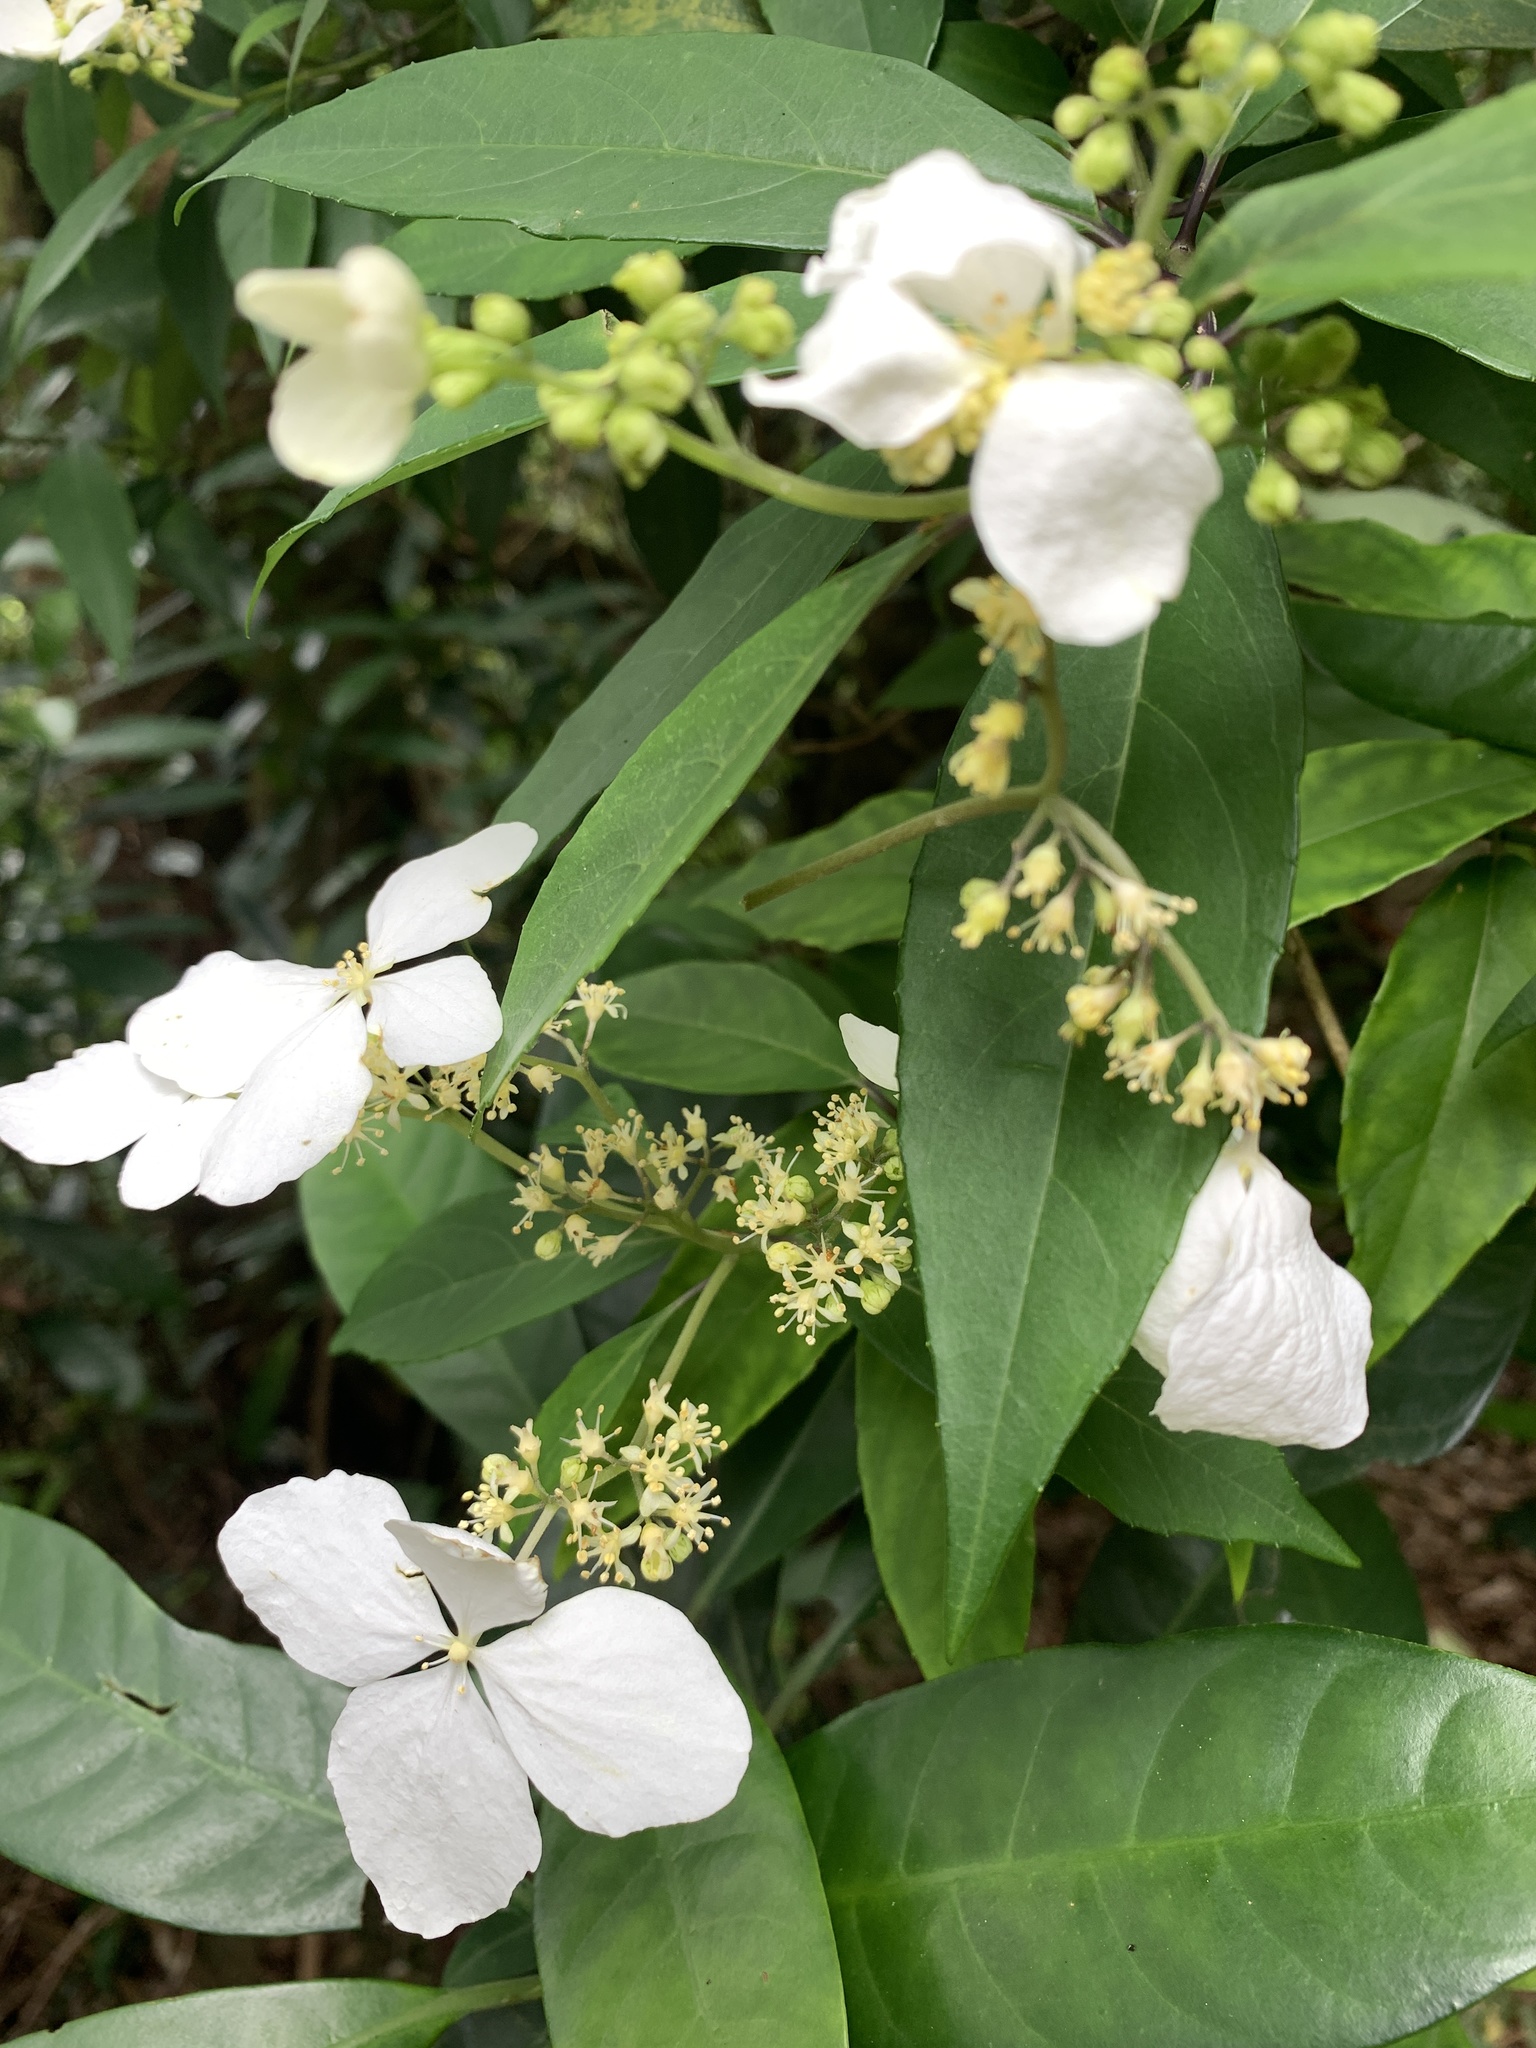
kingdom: Plantae
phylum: Tracheophyta
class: Magnoliopsida
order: Cornales
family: Hydrangeaceae
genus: Hydrangea
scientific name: Hydrangea chinensis
